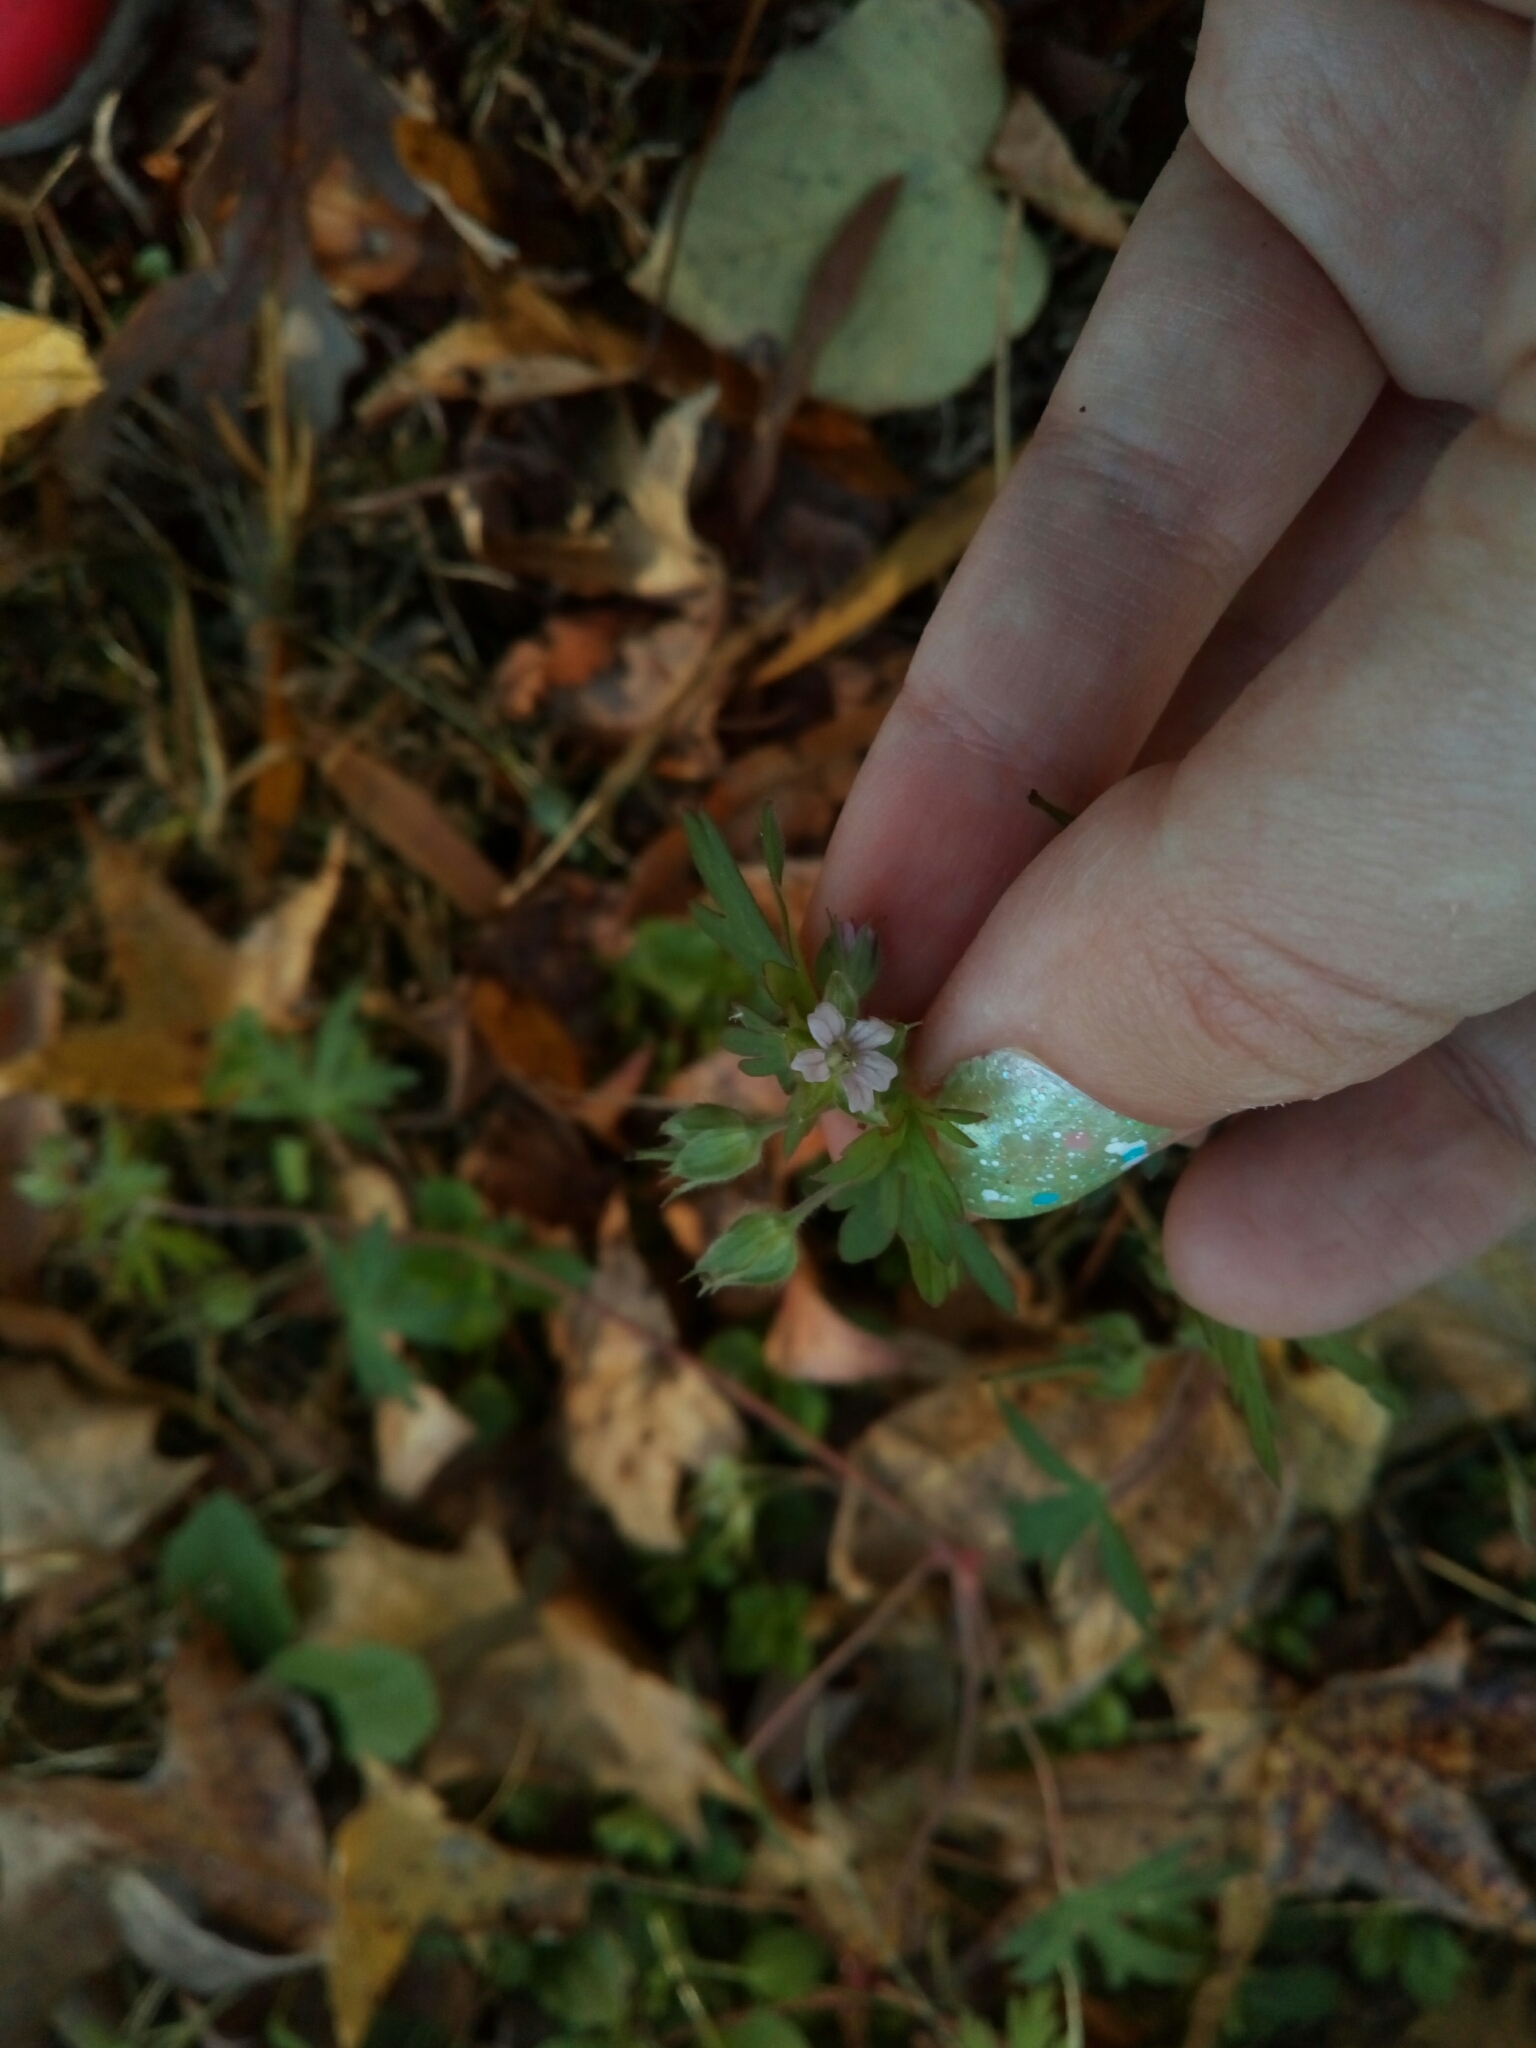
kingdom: Plantae
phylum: Tracheophyta
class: Magnoliopsida
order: Geraniales
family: Geraniaceae
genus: Geranium
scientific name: Geranium carolinianum
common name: Carolina crane's-bill
